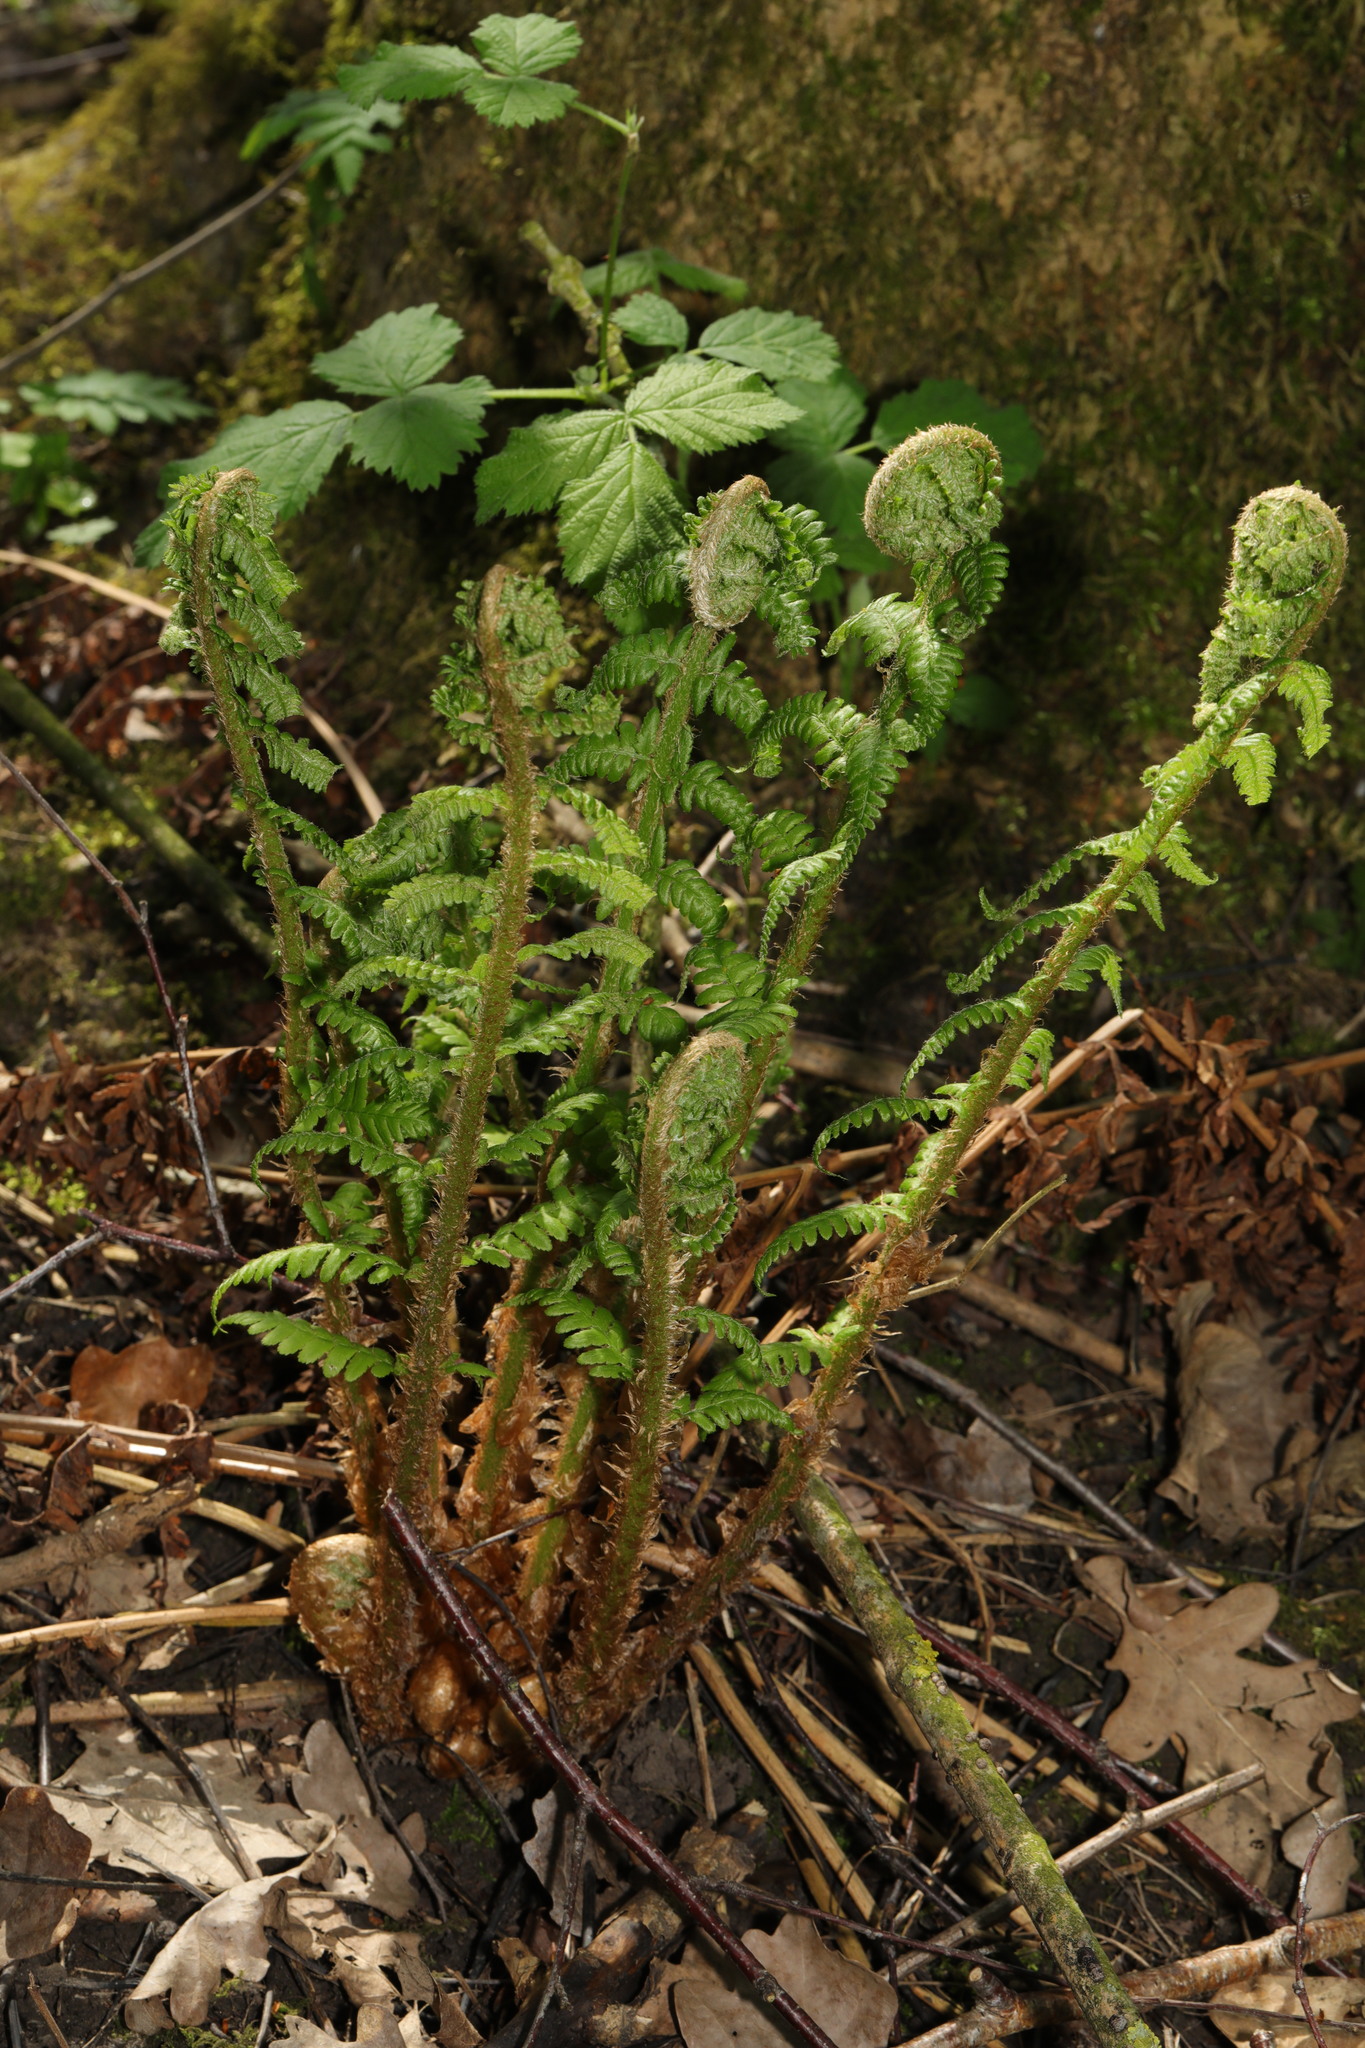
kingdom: Plantae
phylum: Tracheophyta
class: Polypodiopsida
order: Polypodiales
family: Dryopteridaceae
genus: Dryopteris
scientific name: Dryopteris
